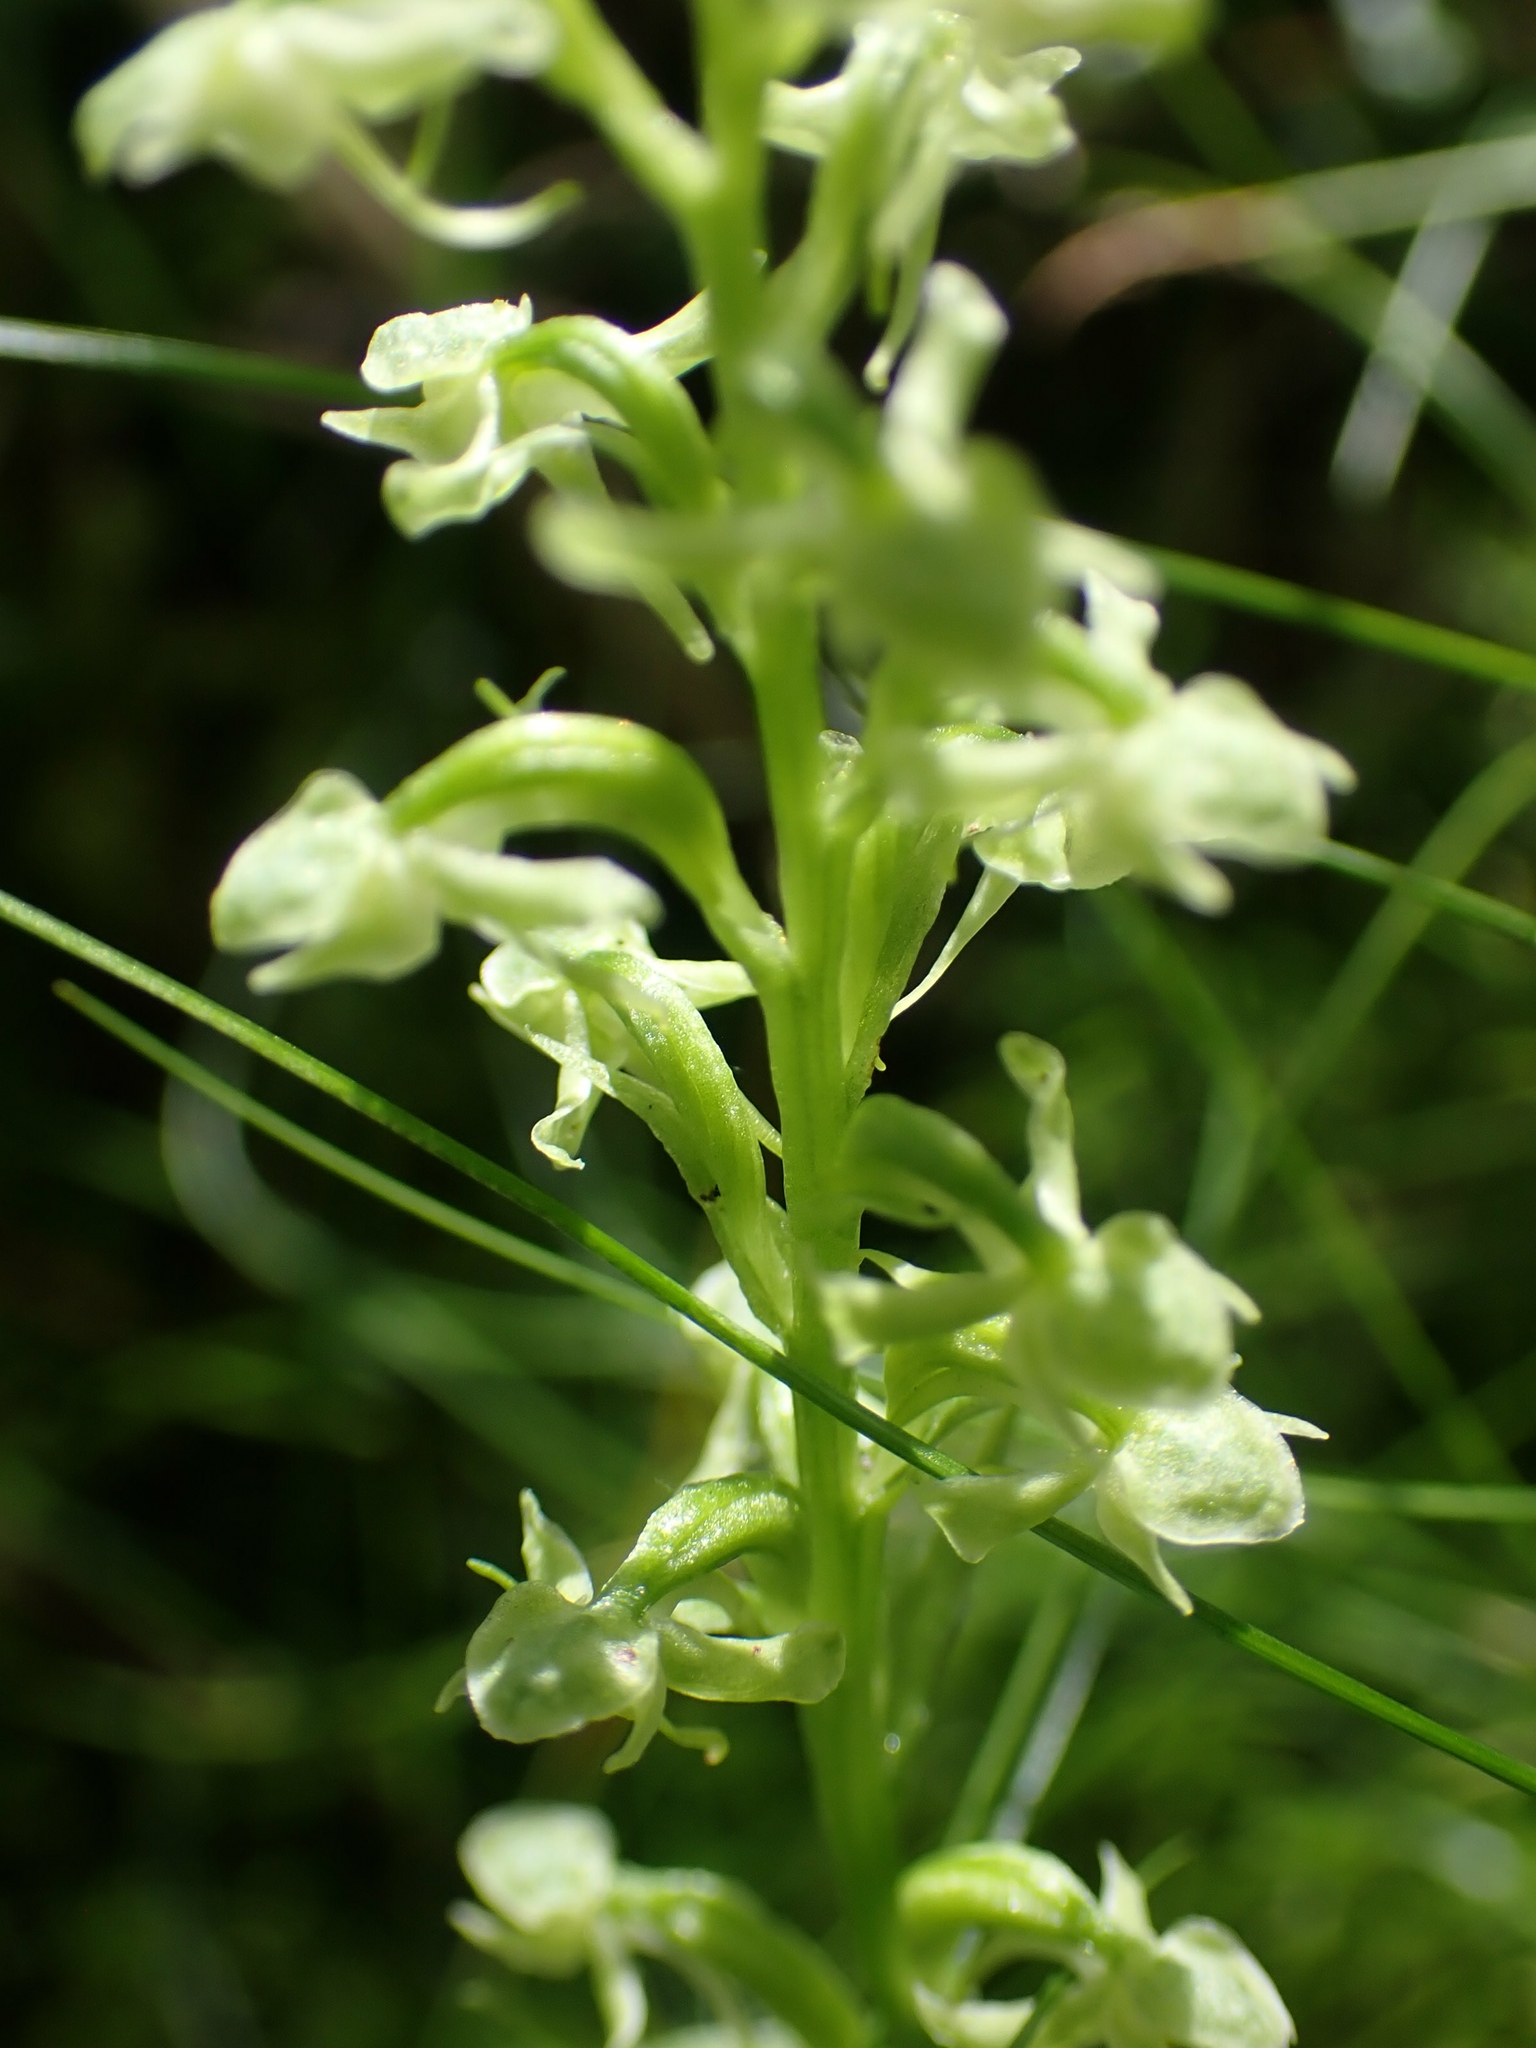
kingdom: Plantae
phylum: Tracheophyta
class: Liliopsida
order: Asparagales
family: Orchidaceae
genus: Platanthera
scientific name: Platanthera obtusata
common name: Blunt bog orchid
